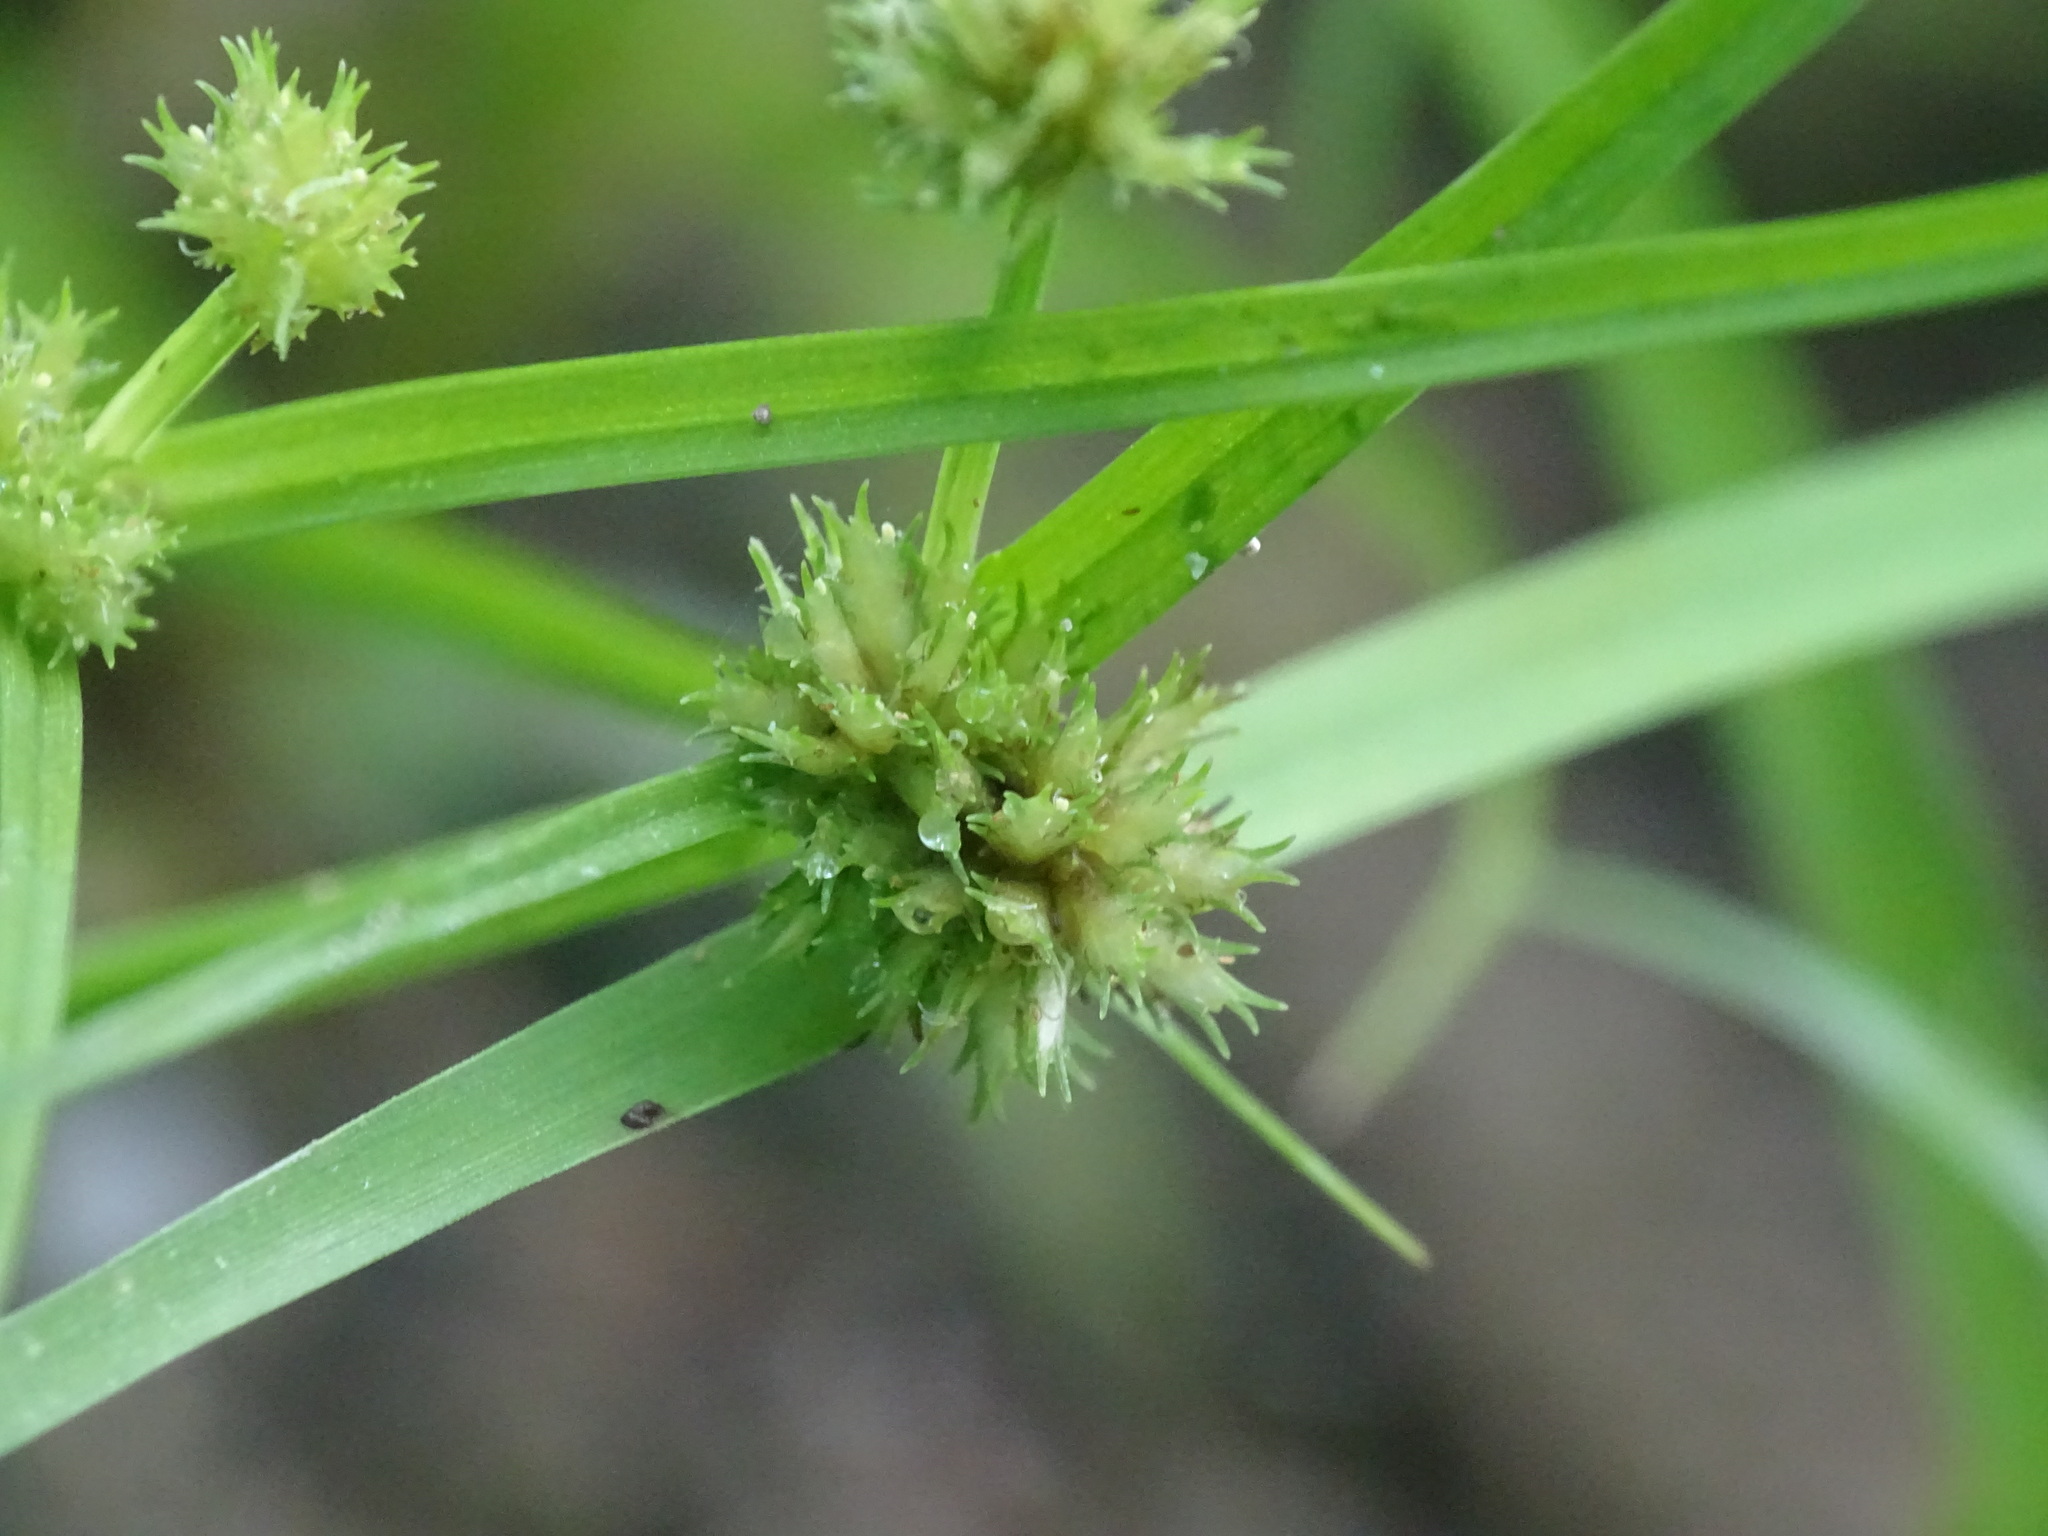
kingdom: Plantae
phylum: Tracheophyta
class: Liliopsida
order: Poales
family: Cyperaceae
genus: Cyperus
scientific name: Cyperus squarrosus
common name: Awned cyperus
